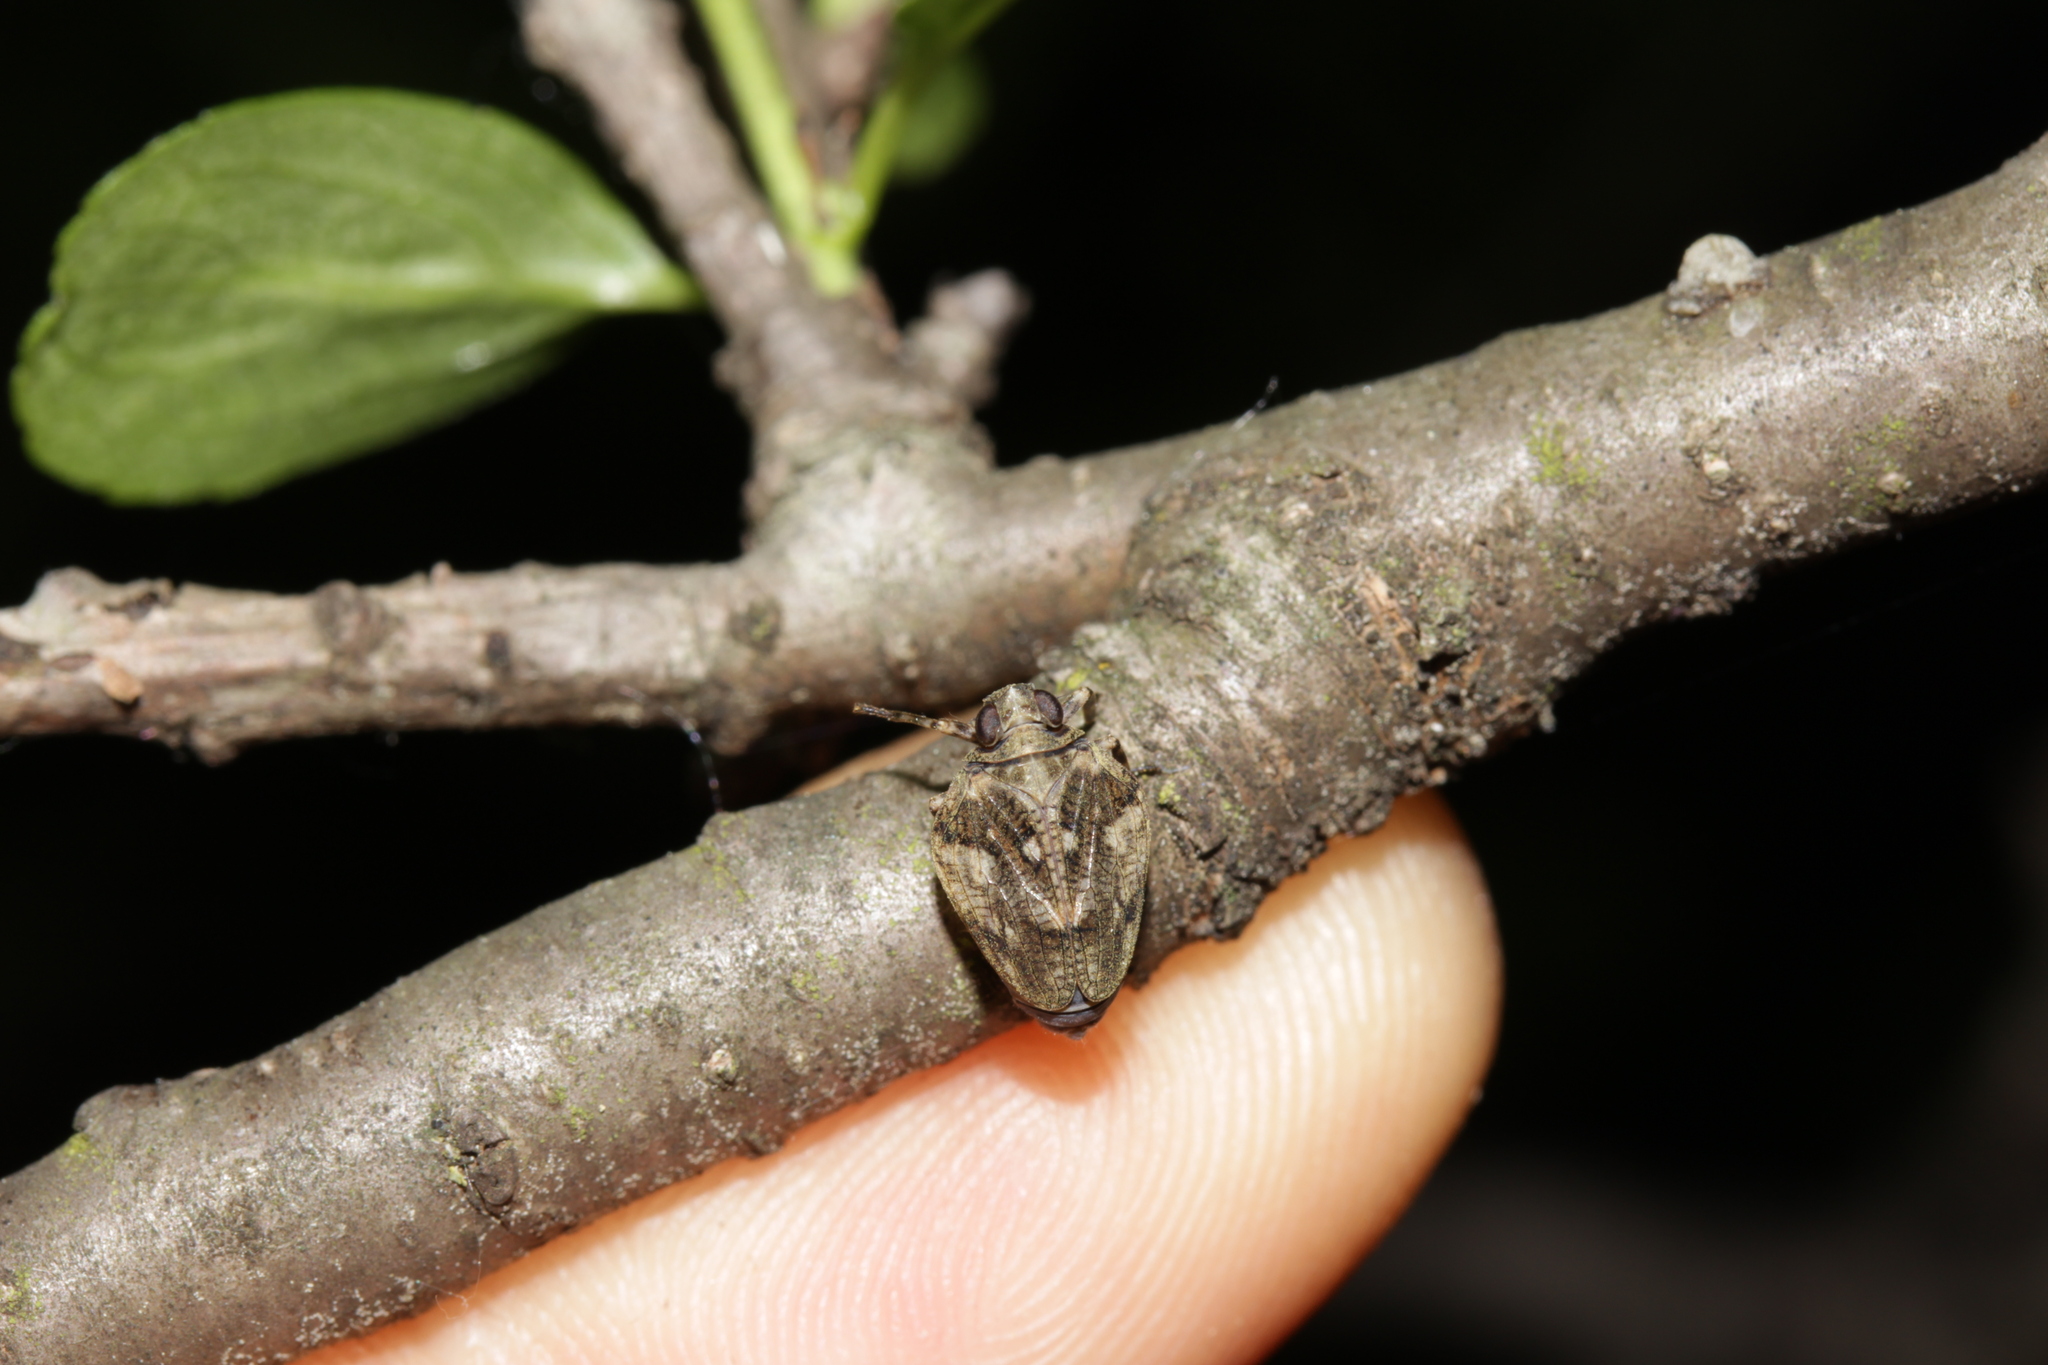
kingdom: Animalia
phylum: Arthropoda
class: Insecta
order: Hemiptera
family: Issidae
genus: Issus
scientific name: Issus muscaeformis
